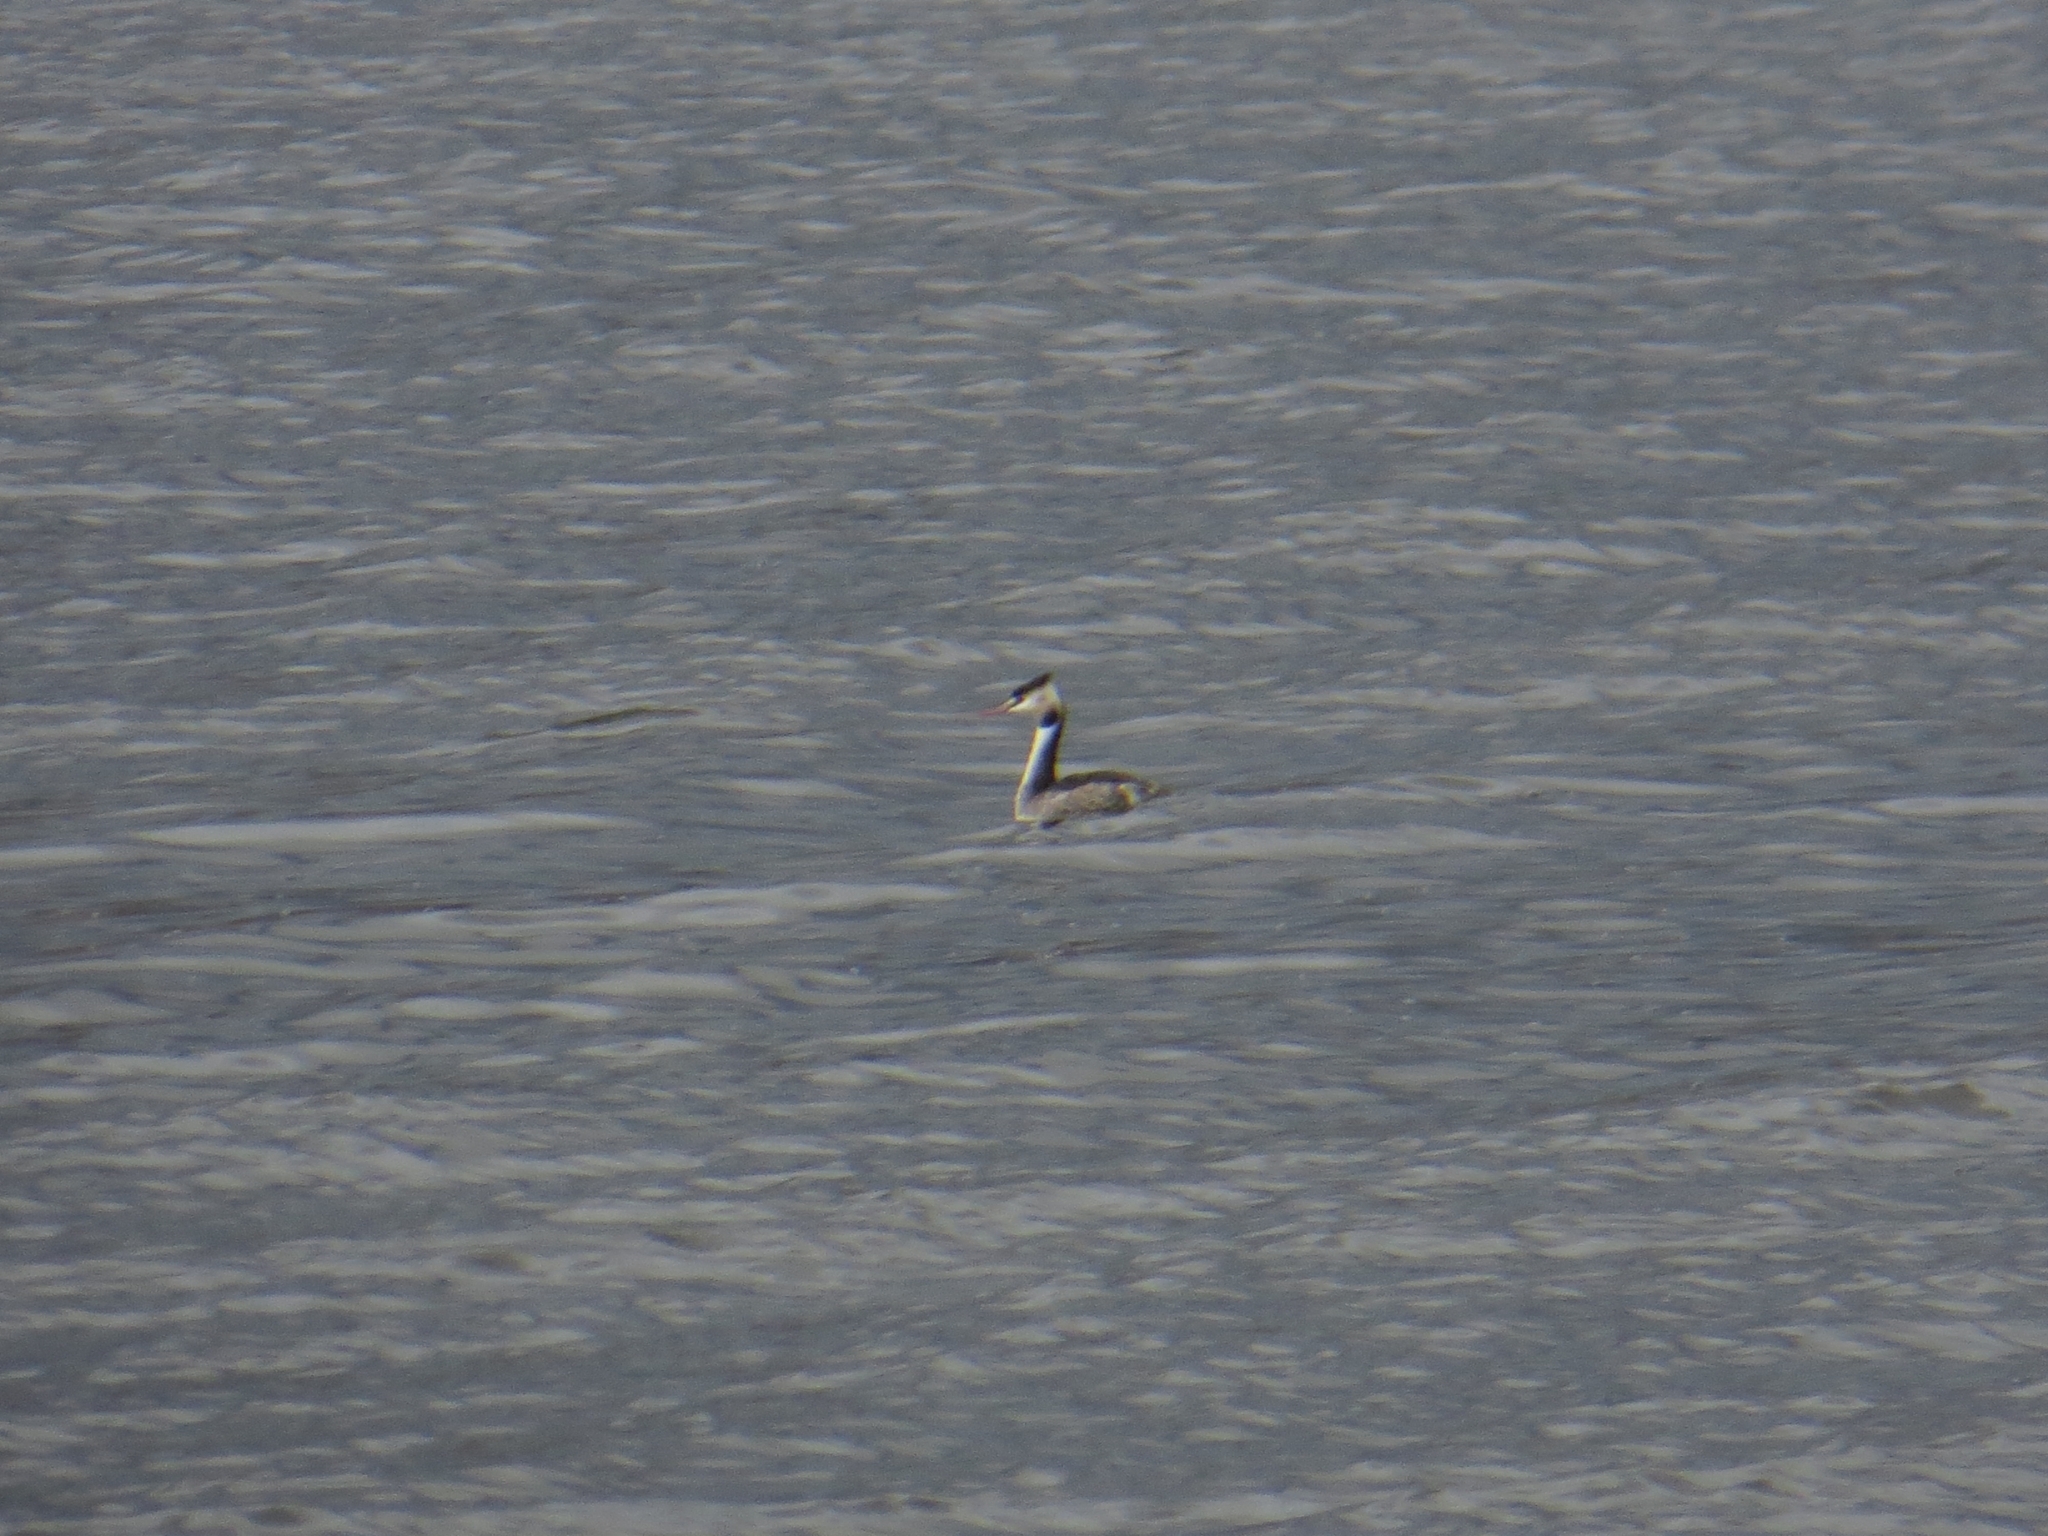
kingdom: Animalia
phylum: Chordata
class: Aves
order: Podicipediformes
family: Podicipedidae
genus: Podiceps
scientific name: Podiceps cristatus
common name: Great crested grebe
